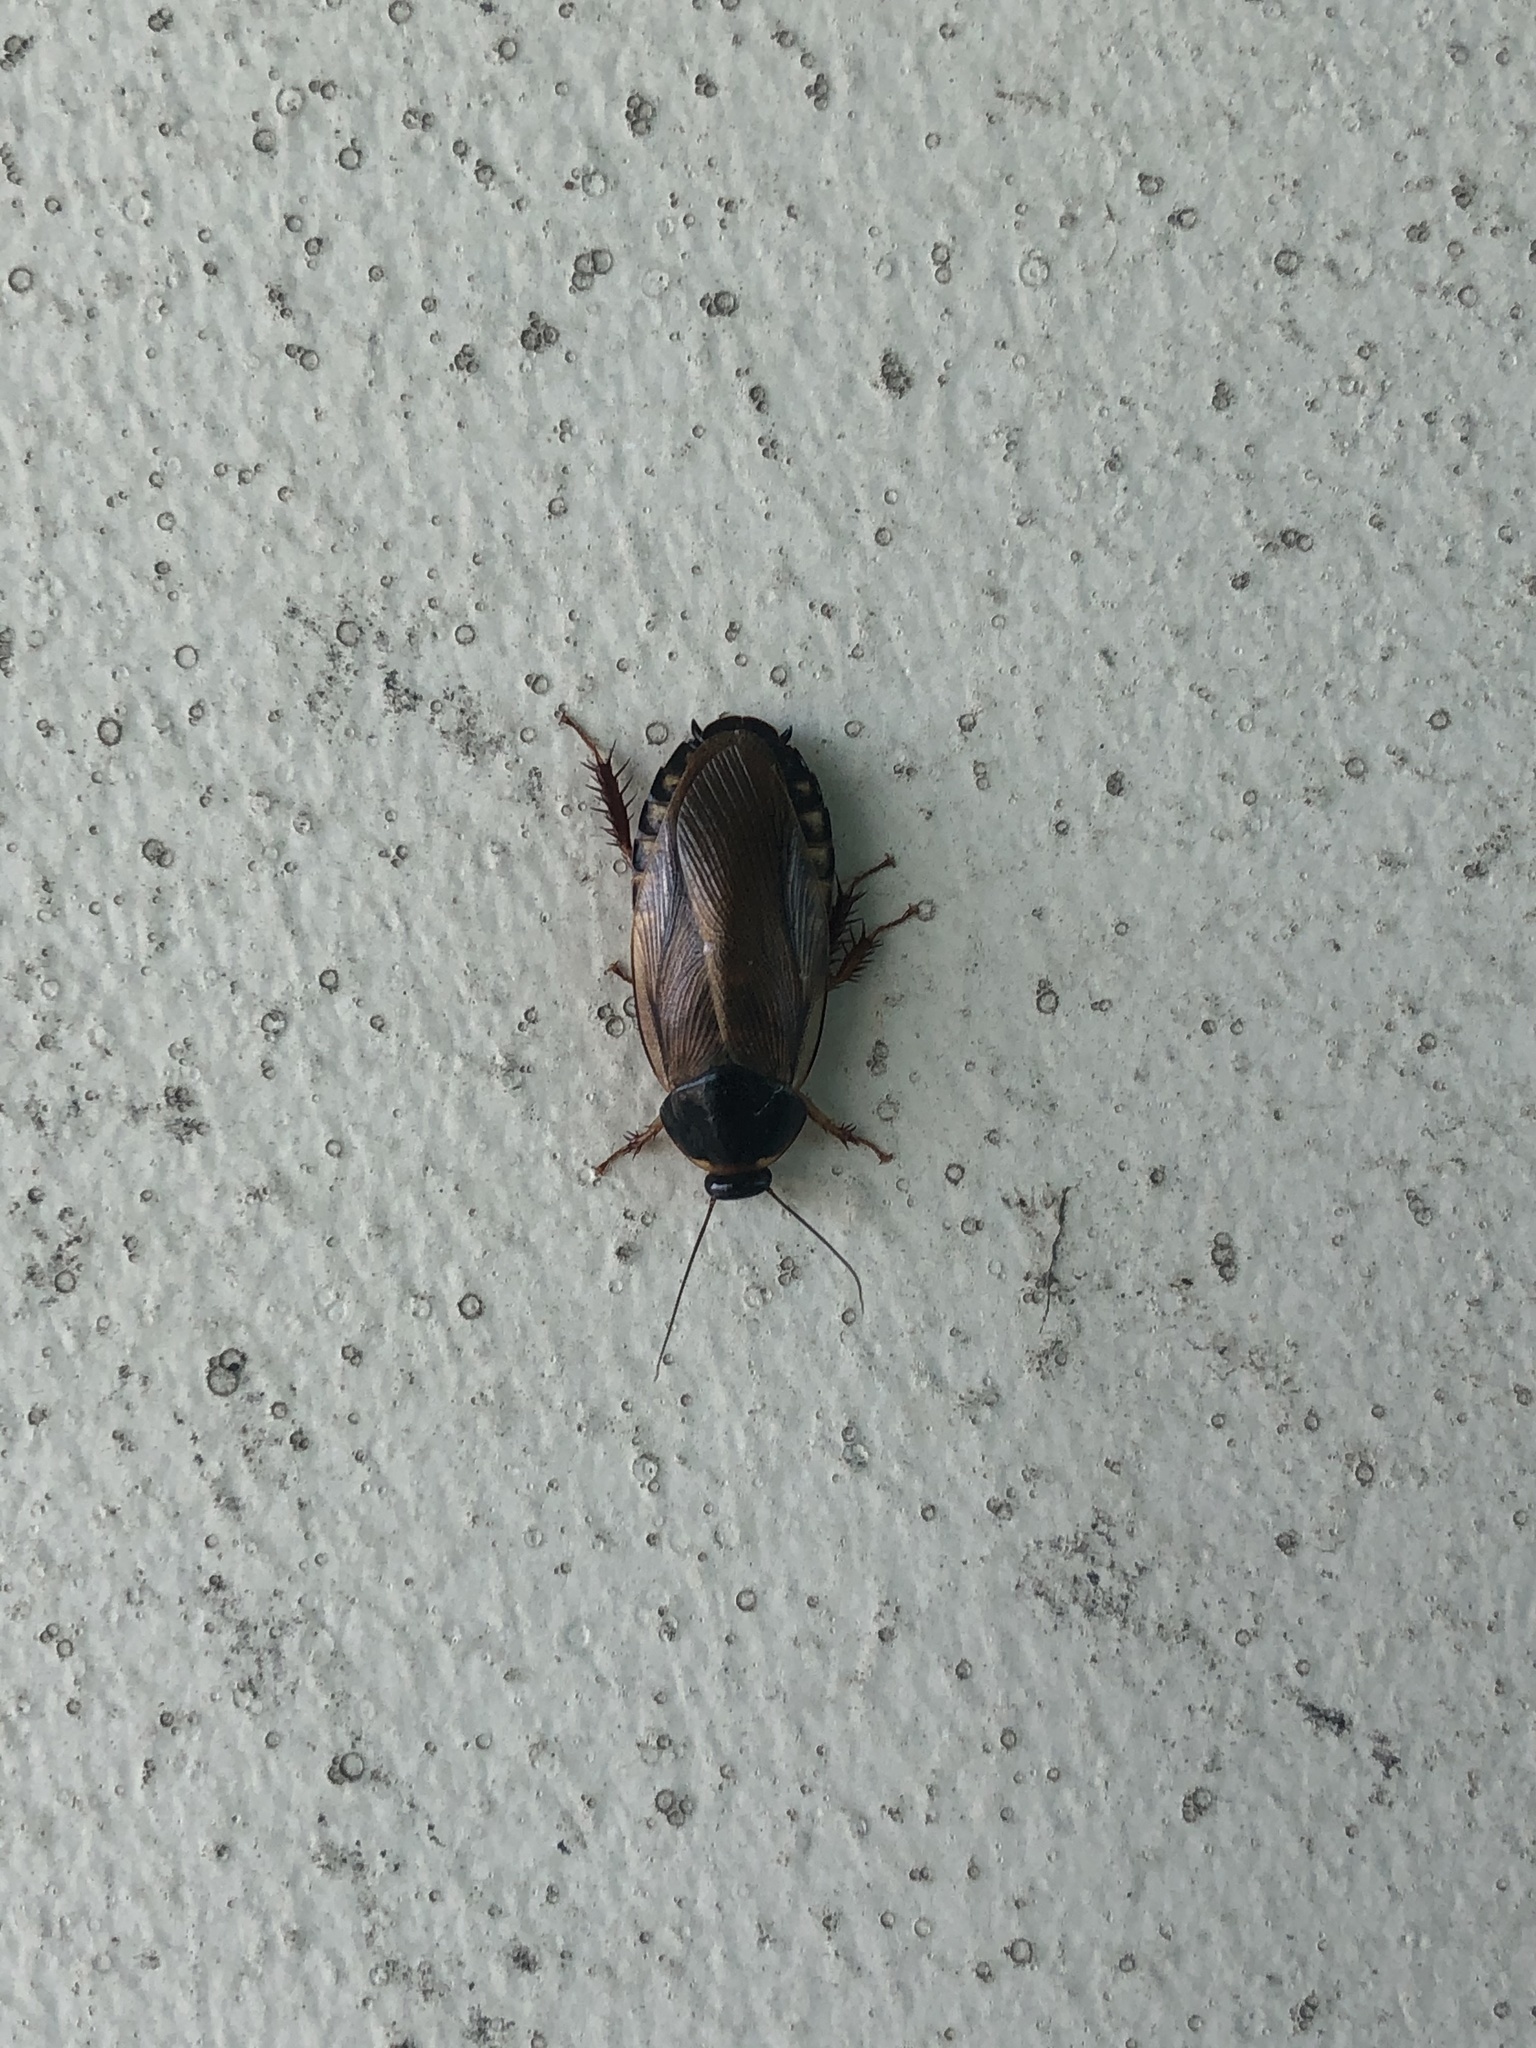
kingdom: Animalia
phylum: Arthropoda
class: Insecta
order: Blattodea
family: Blaberidae
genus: Pycnoscelus
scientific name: Pycnoscelus surinamensis
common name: Surinam cockroach
